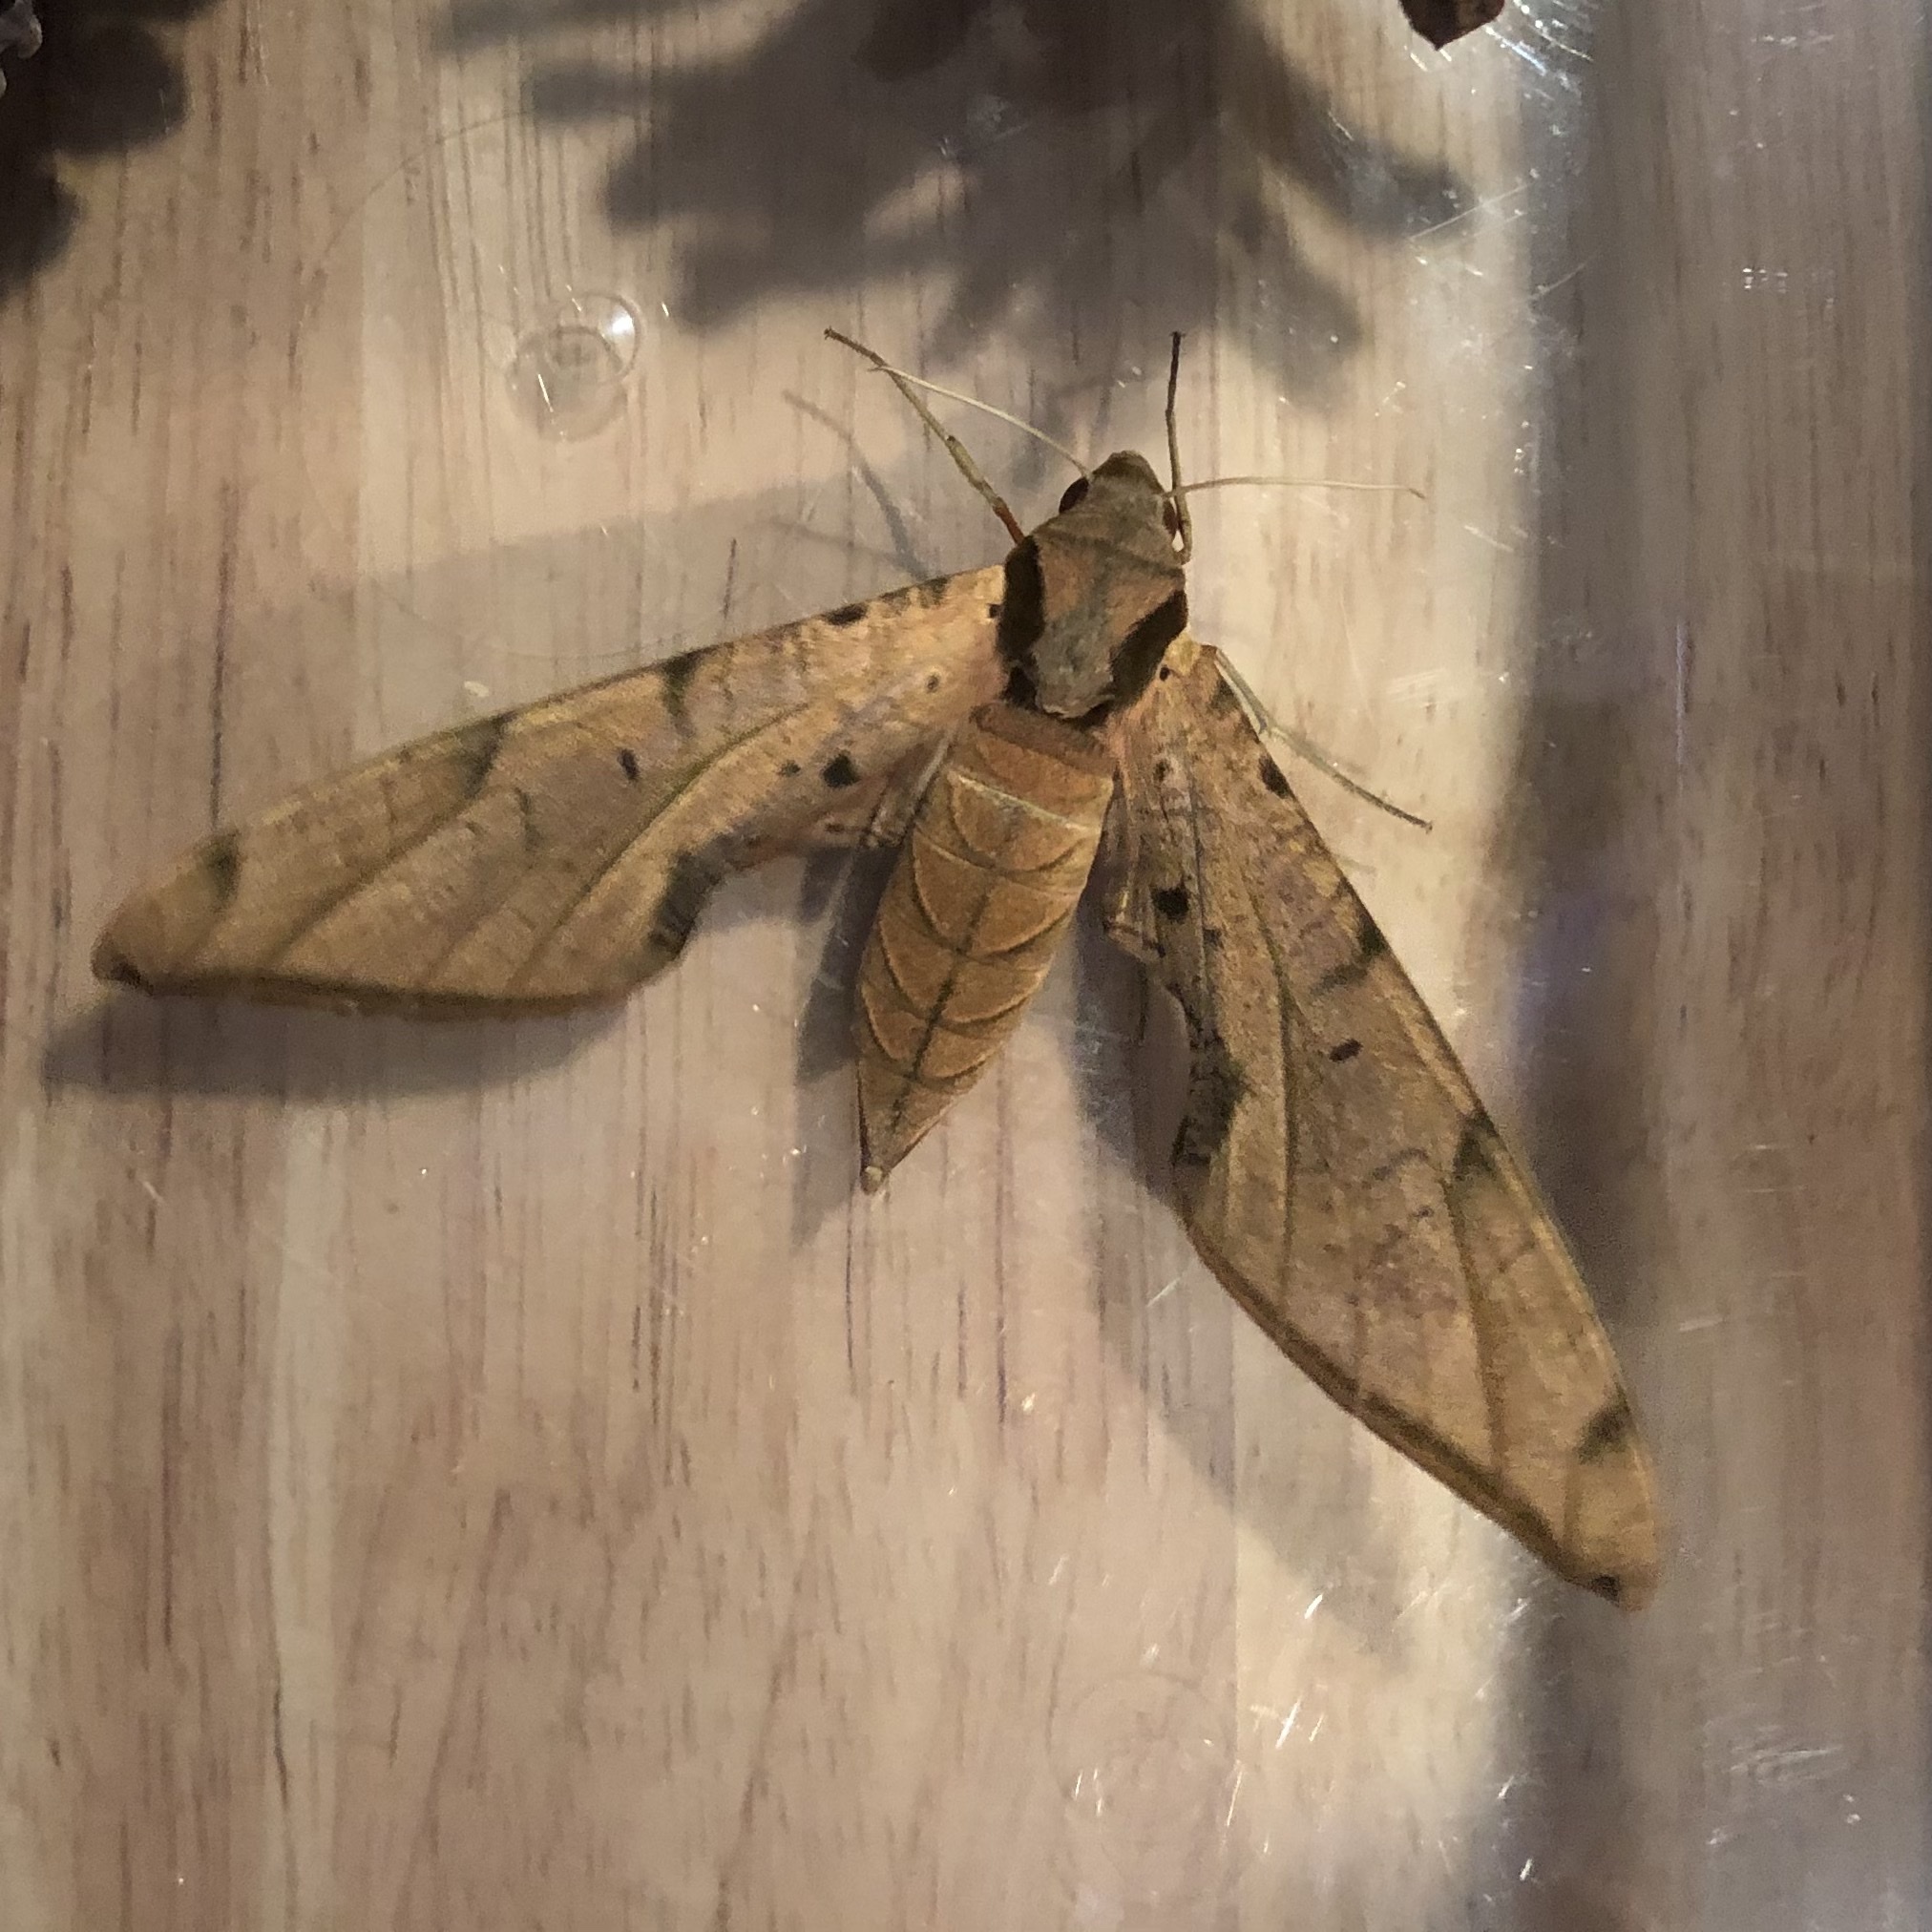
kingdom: Animalia
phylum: Arthropoda
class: Insecta
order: Lepidoptera
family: Sphingidae
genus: Protambulyx
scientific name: Protambulyx strigilis
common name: Streaked sphinx
